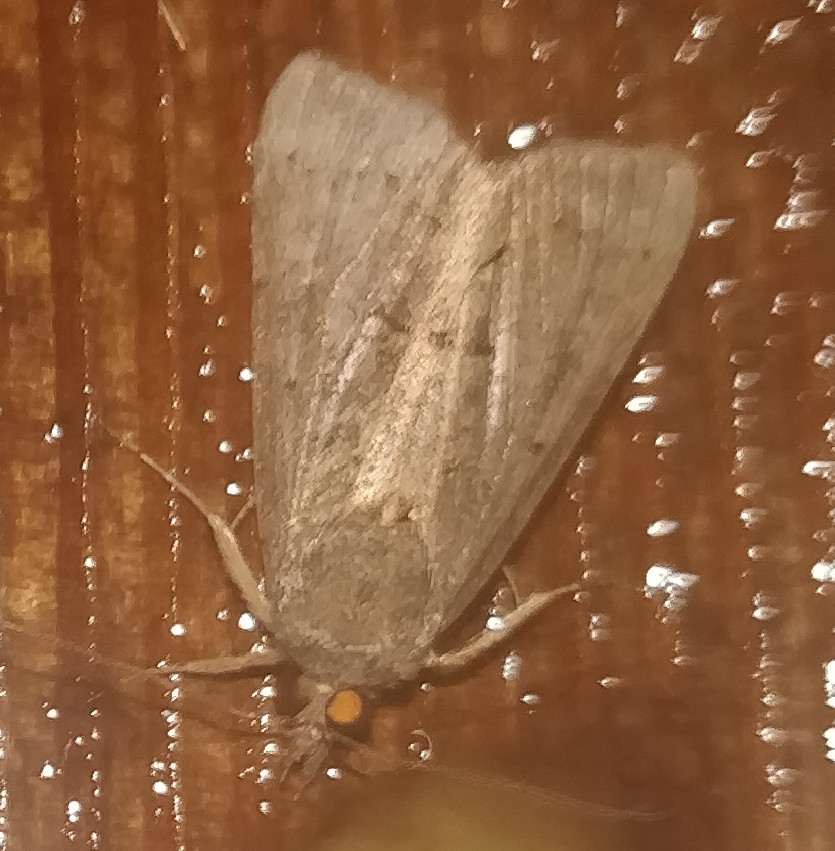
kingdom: Animalia
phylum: Arthropoda
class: Insecta
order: Lepidoptera
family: Erebidae
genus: Hypena
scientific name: Hypena scabra
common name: Green cloverworm
